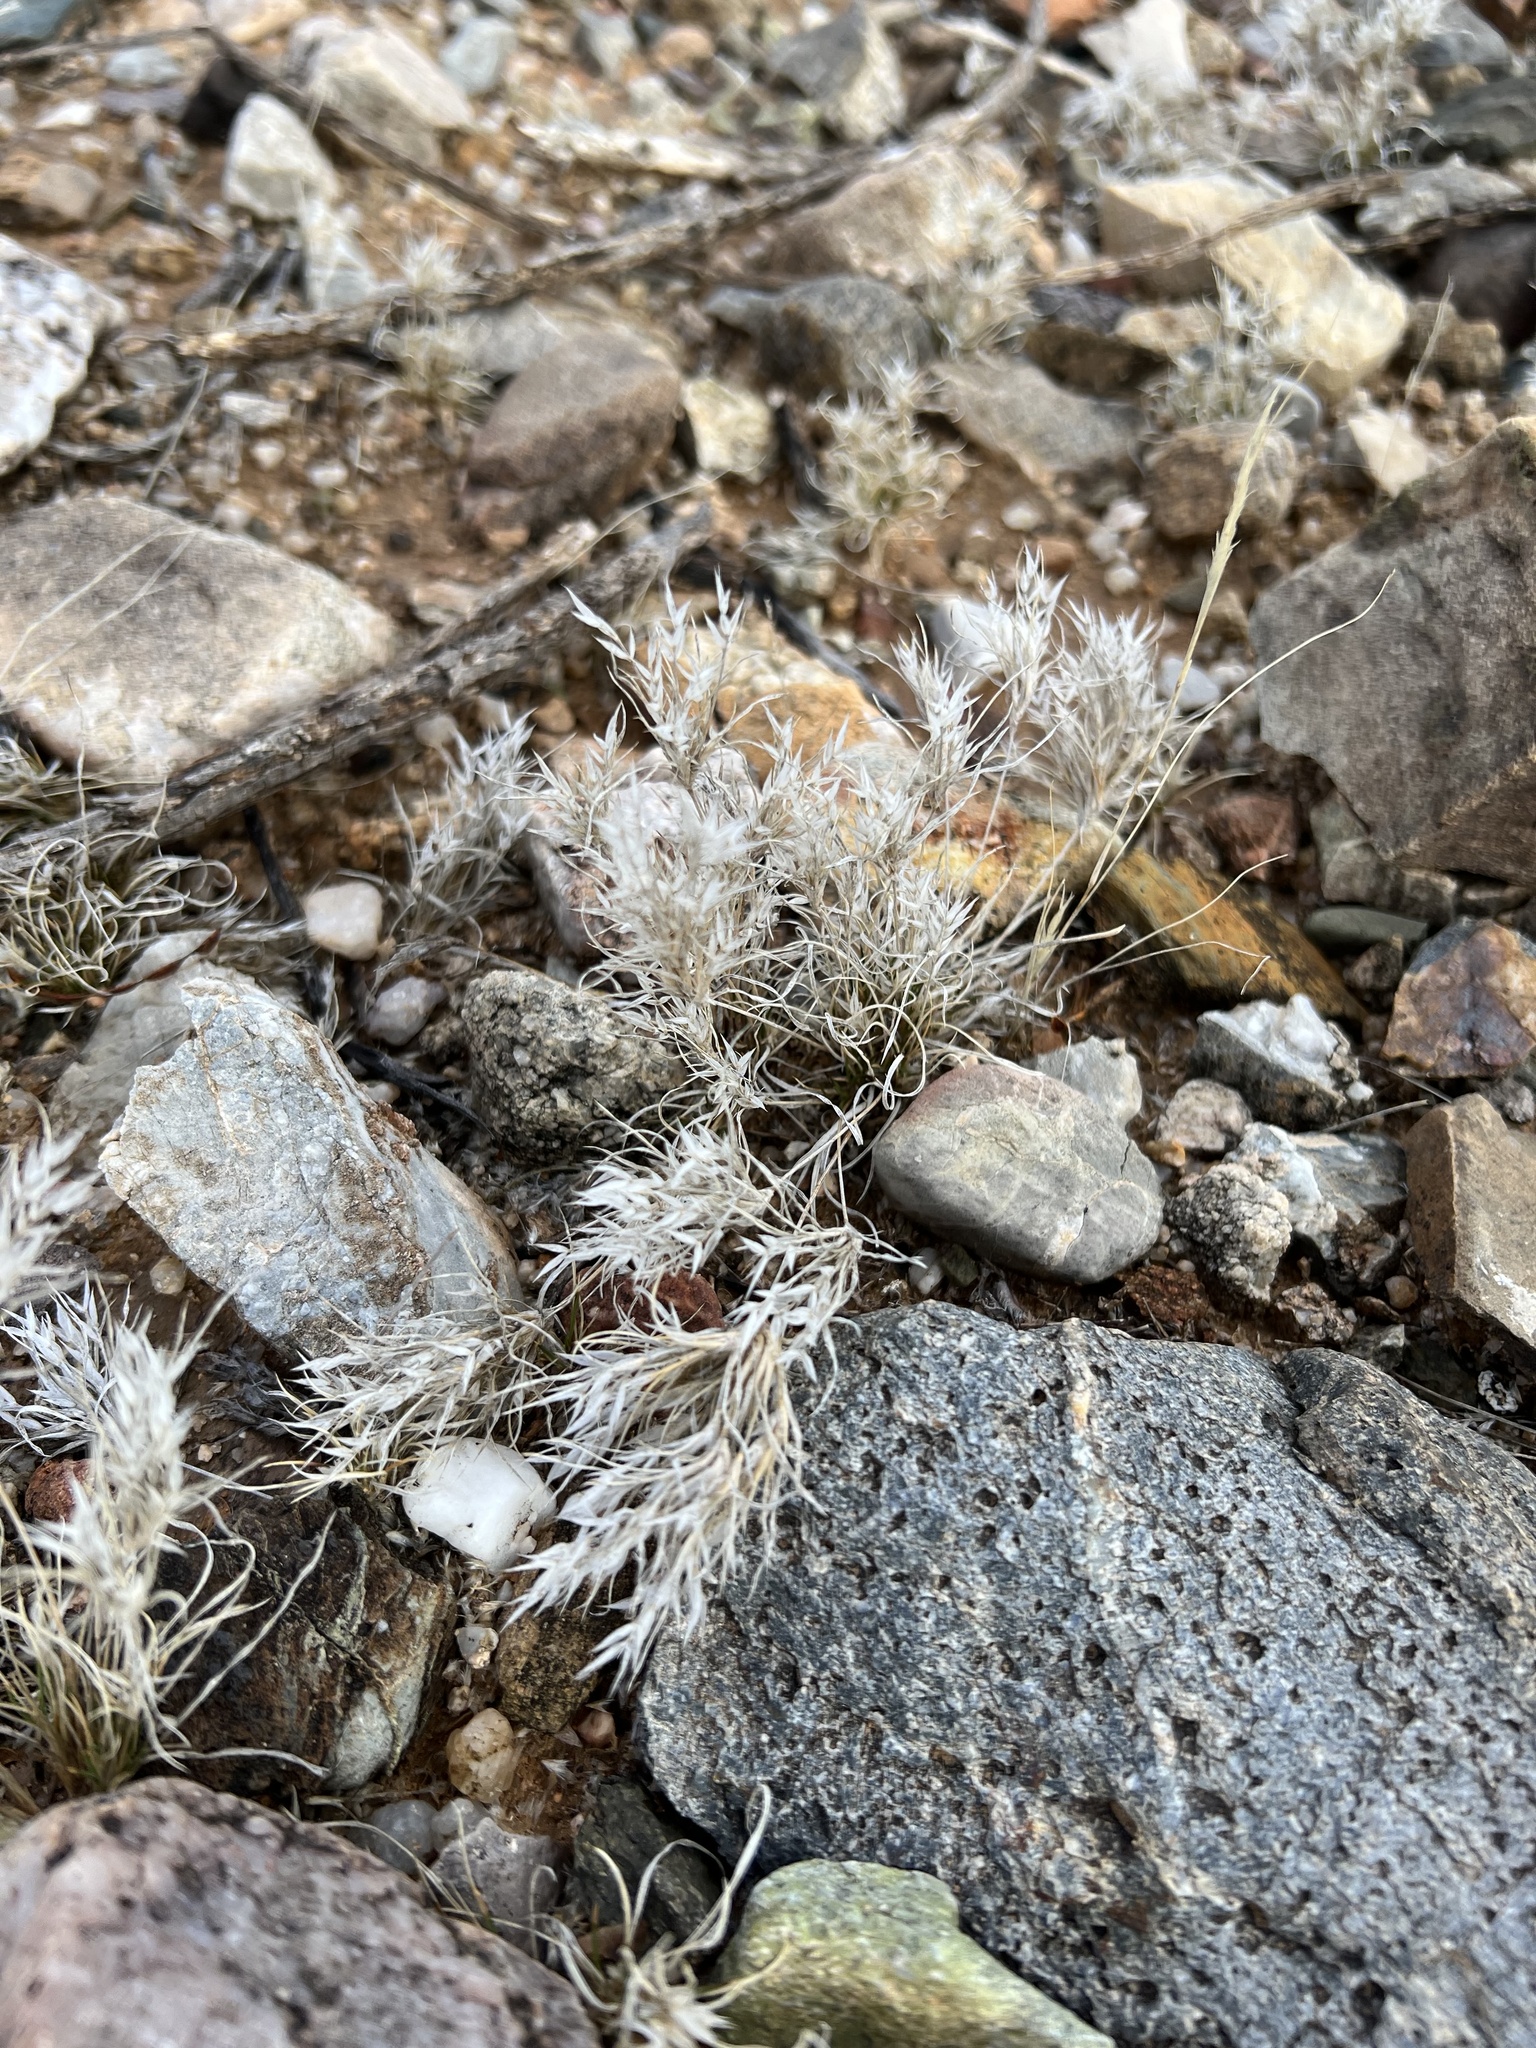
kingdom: Plantae
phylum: Tracheophyta
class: Liliopsida
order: Poales
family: Poaceae
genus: Dasyochloa
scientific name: Dasyochloa pulchella
